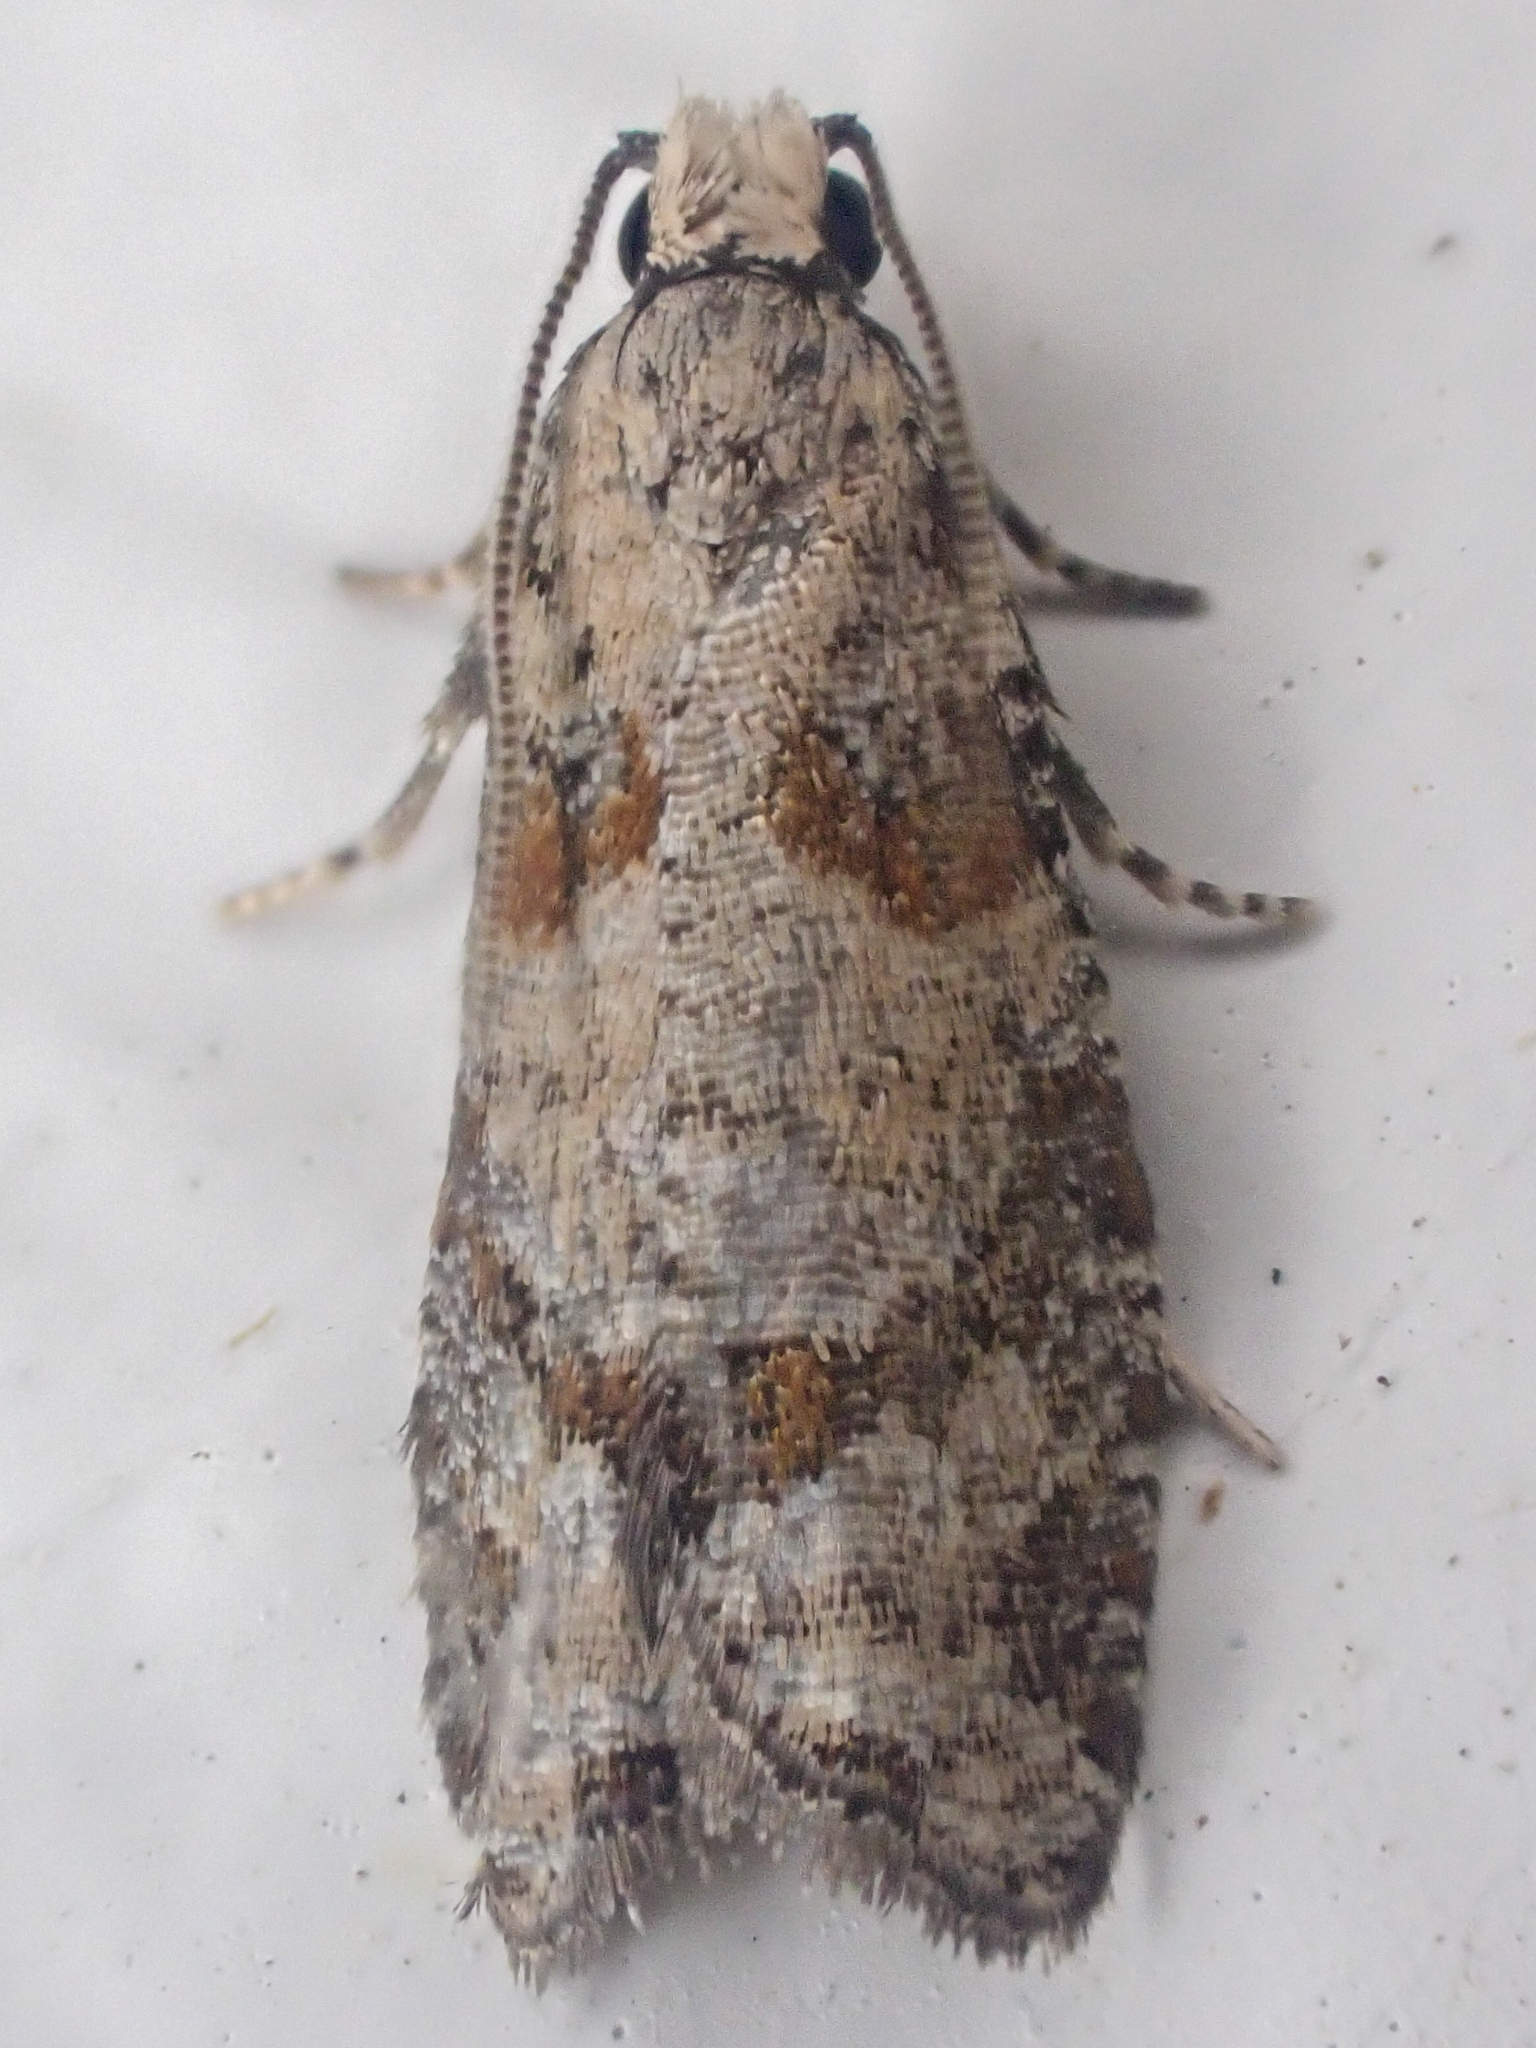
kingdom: Animalia
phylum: Arthropoda
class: Insecta
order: Lepidoptera
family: Tortricidae
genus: Epinotia
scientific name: Epinotia radicana
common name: Red-striped needleworm moth
